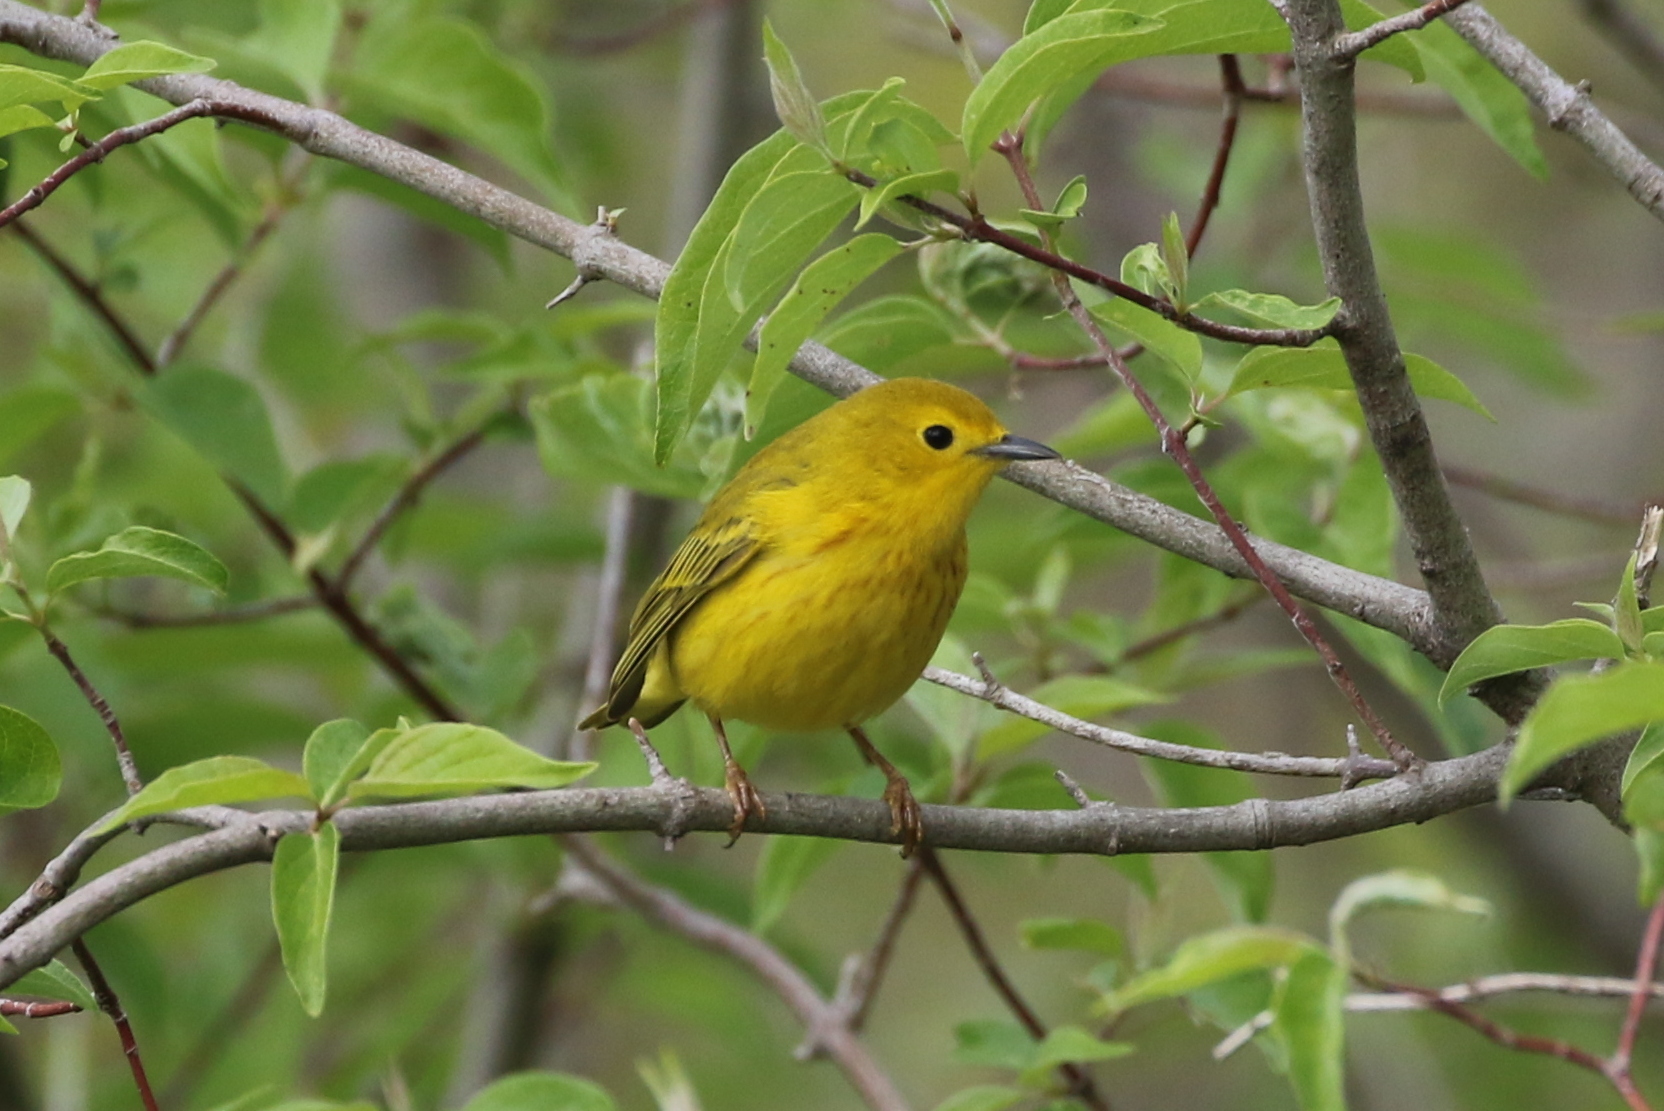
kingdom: Animalia
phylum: Chordata
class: Aves
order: Passeriformes
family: Parulidae
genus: Setophaga
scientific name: Setophaga petechia
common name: Yellow warbler
